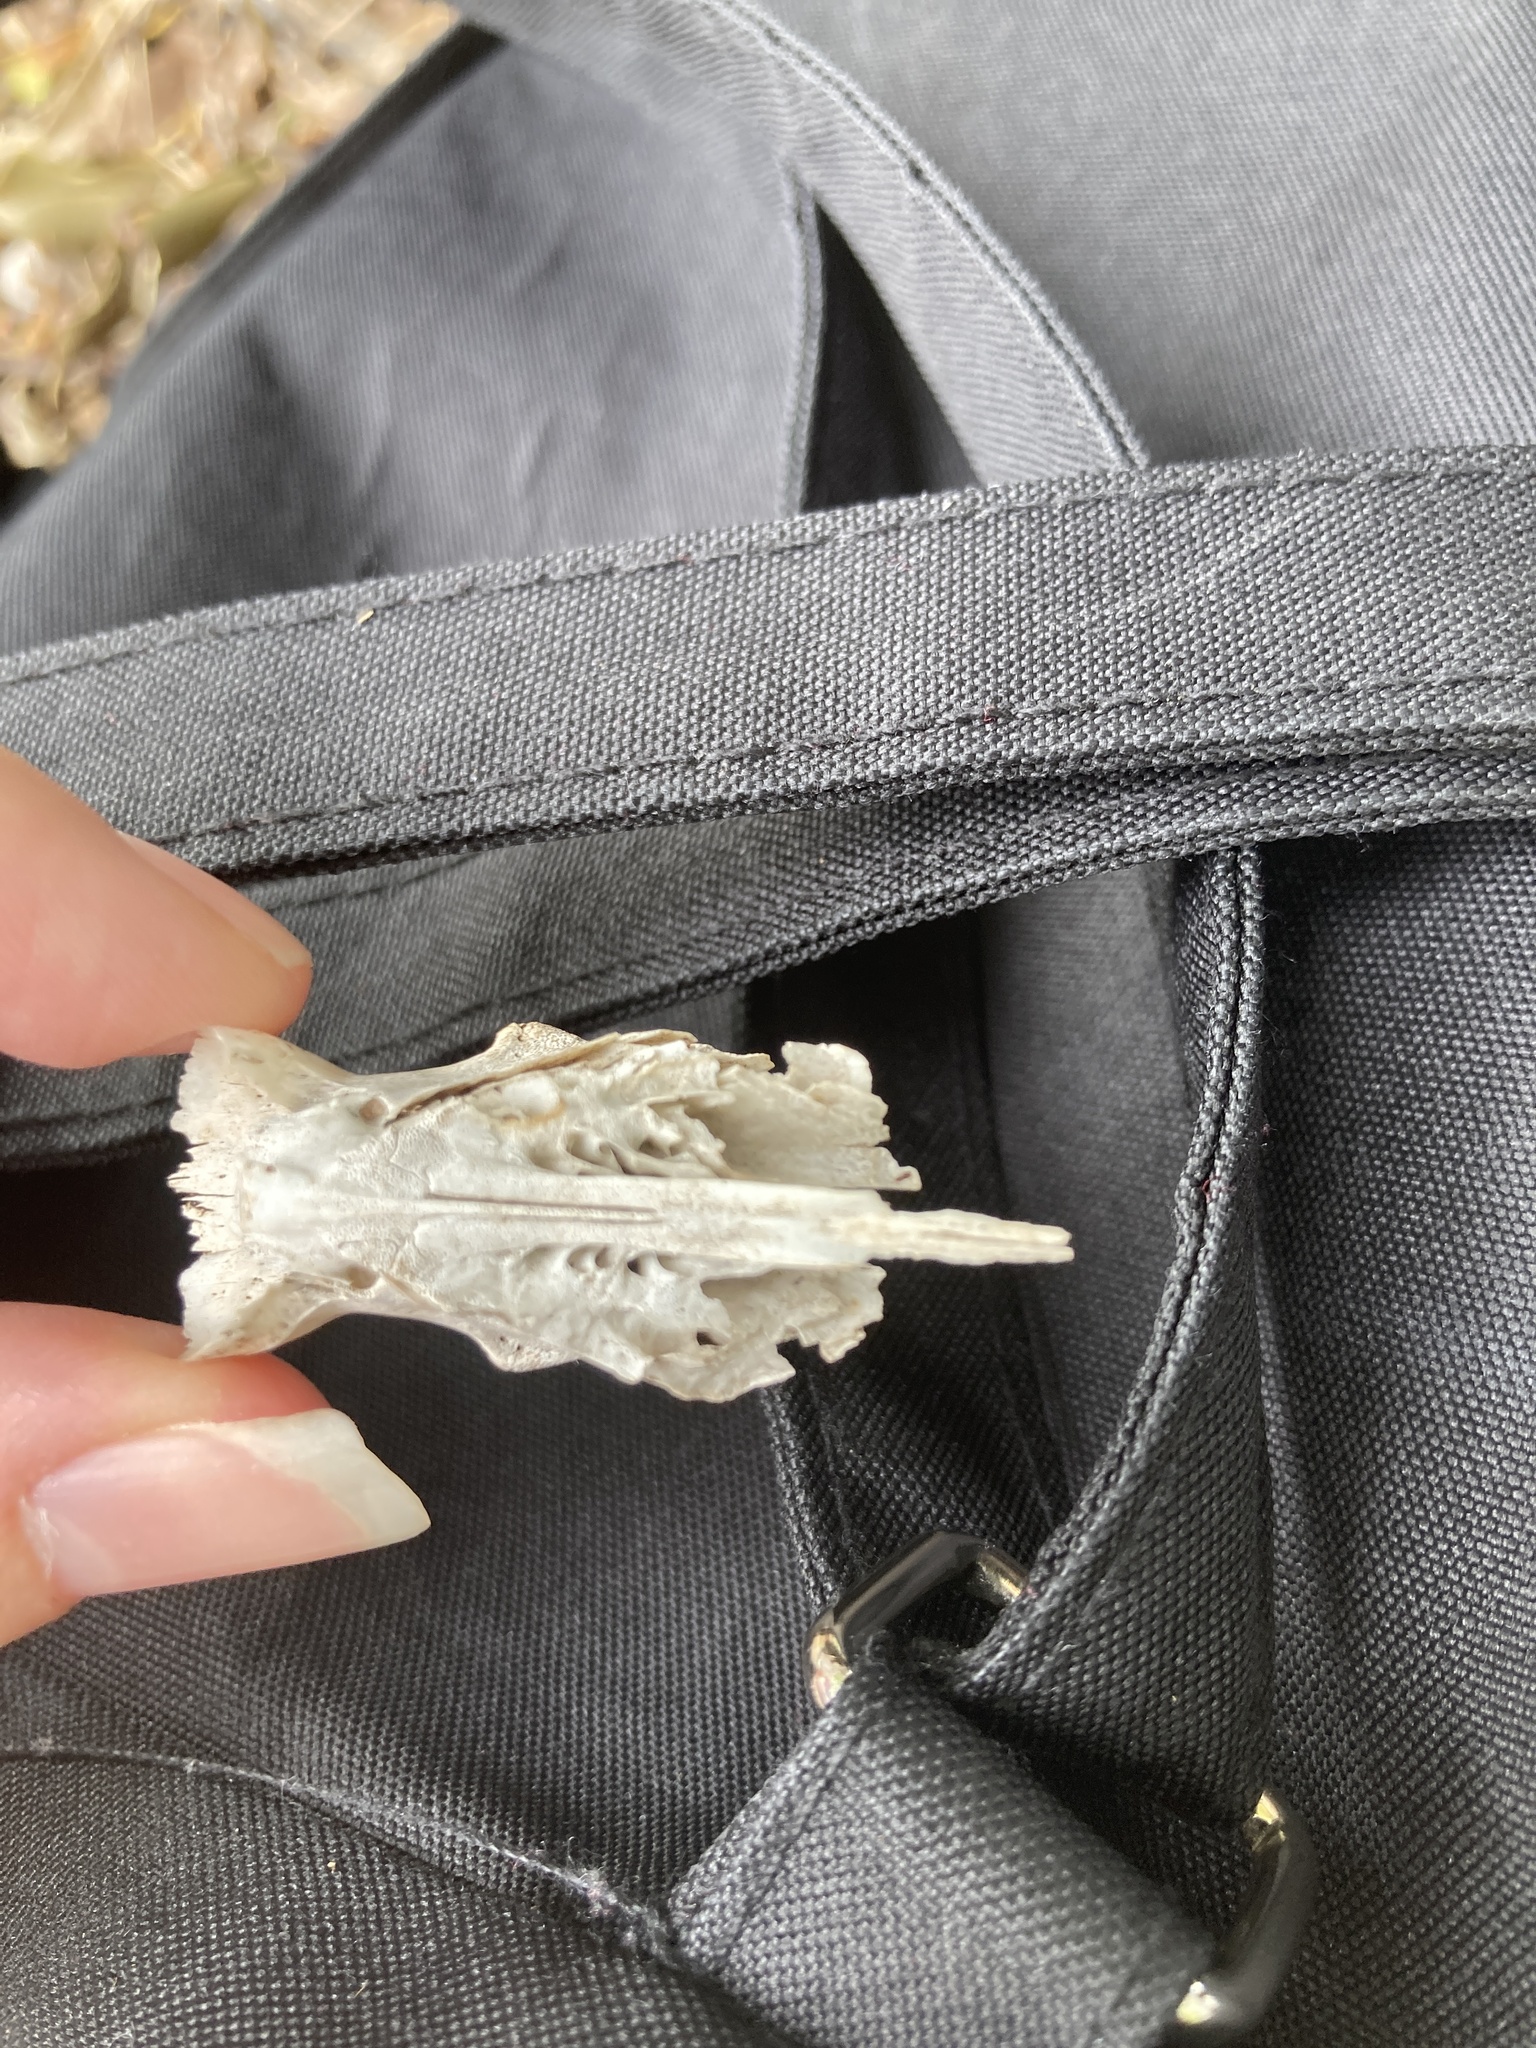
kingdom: Animalia
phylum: Chordata
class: Mammalia
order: Didelphimorphia
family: Didelphidae
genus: Didelphis
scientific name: Didelphis virginiana
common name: Virginia opossum
